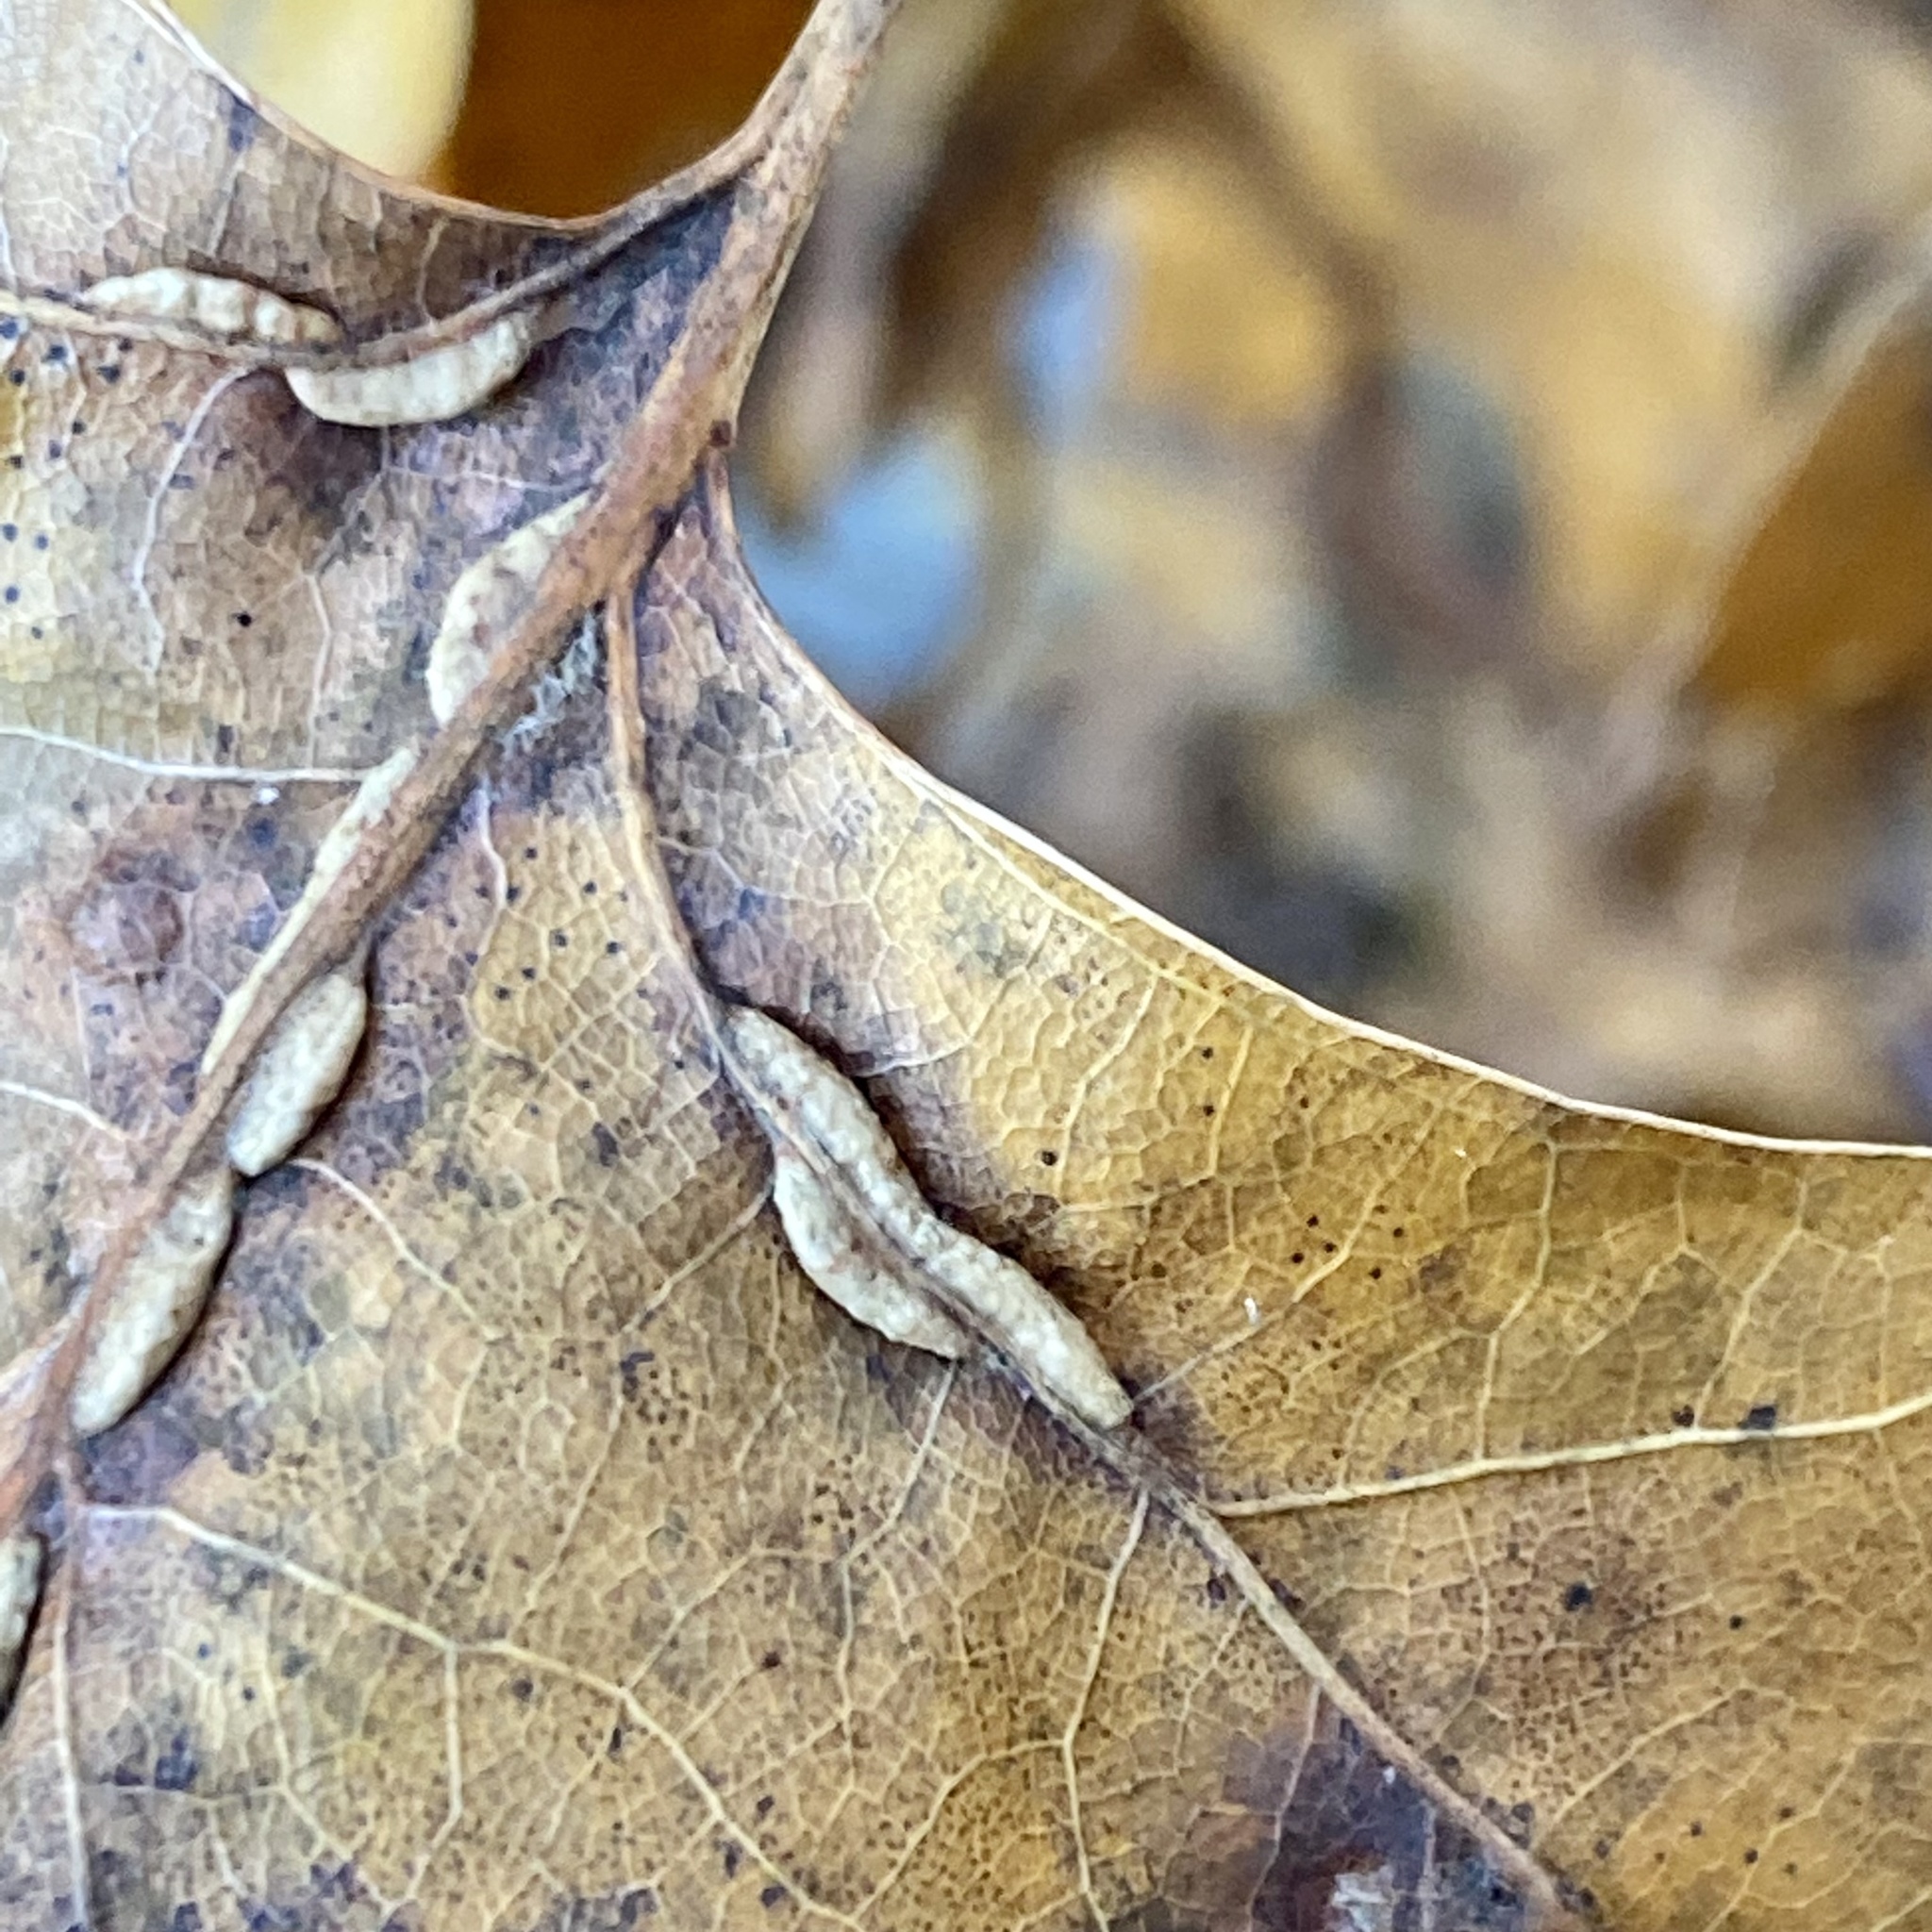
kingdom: Animalia
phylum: Arthropoda
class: Insecta
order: Diptera
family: Cecidomyiidae
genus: Macrodiplosis
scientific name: Macrodiplosis q-orucum
